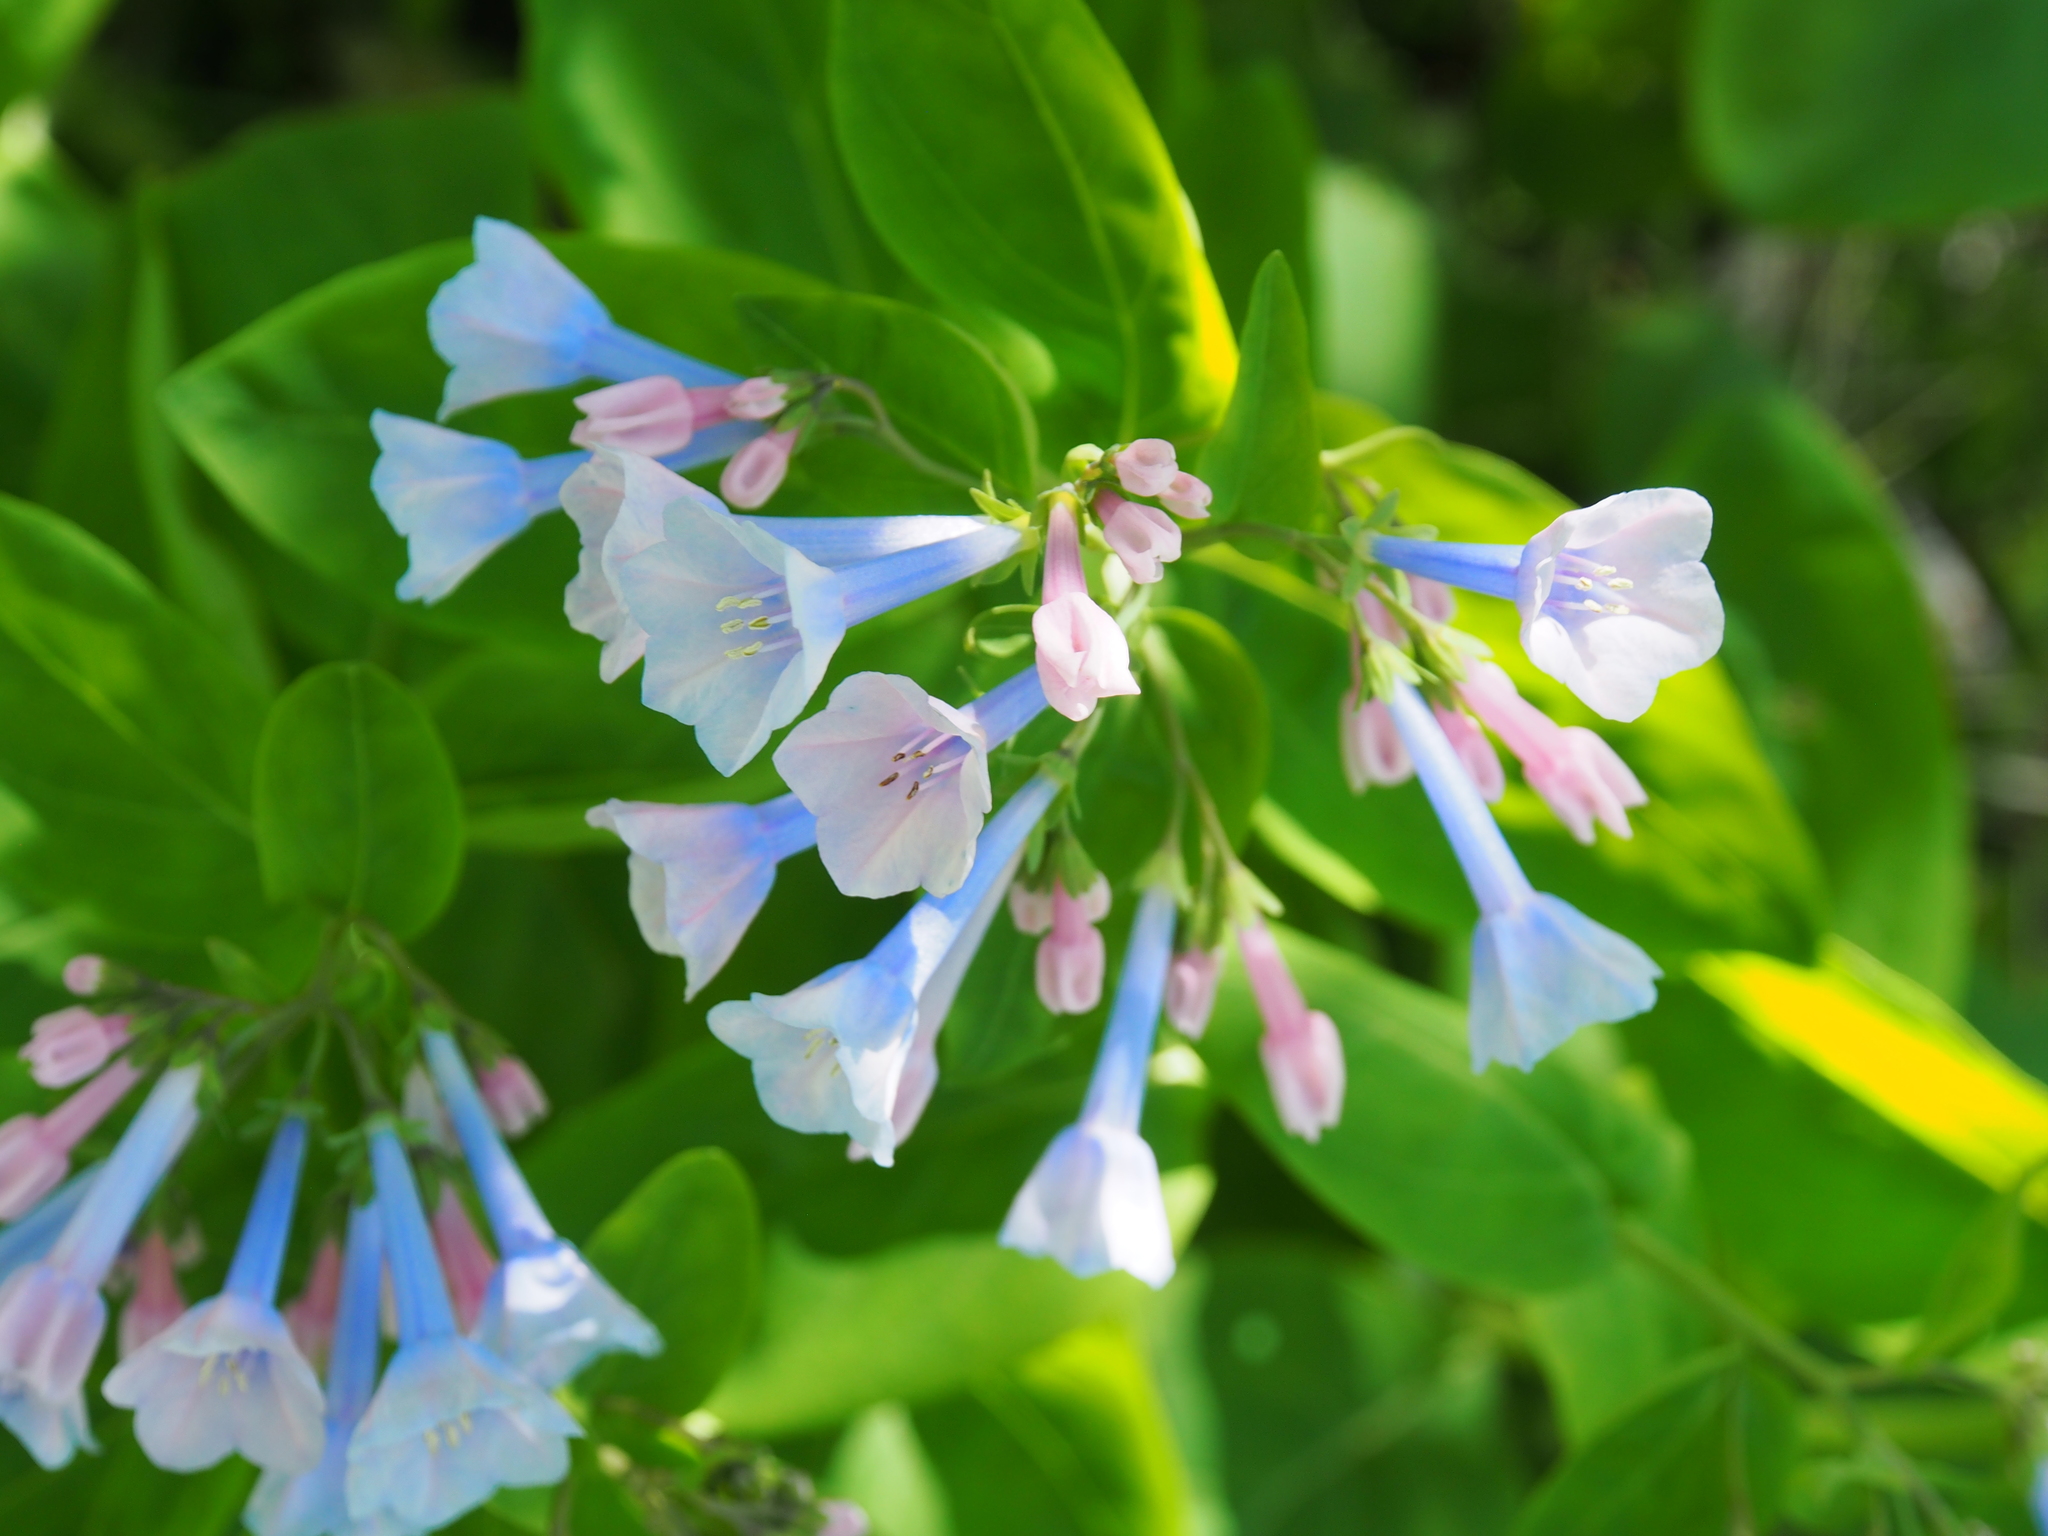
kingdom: Plantae
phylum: Tracheophyta
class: Magnoliopsida
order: Boraginales
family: Boraginaceae
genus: Mertensia
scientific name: Mertensia virginica
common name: Virginia bluebells
